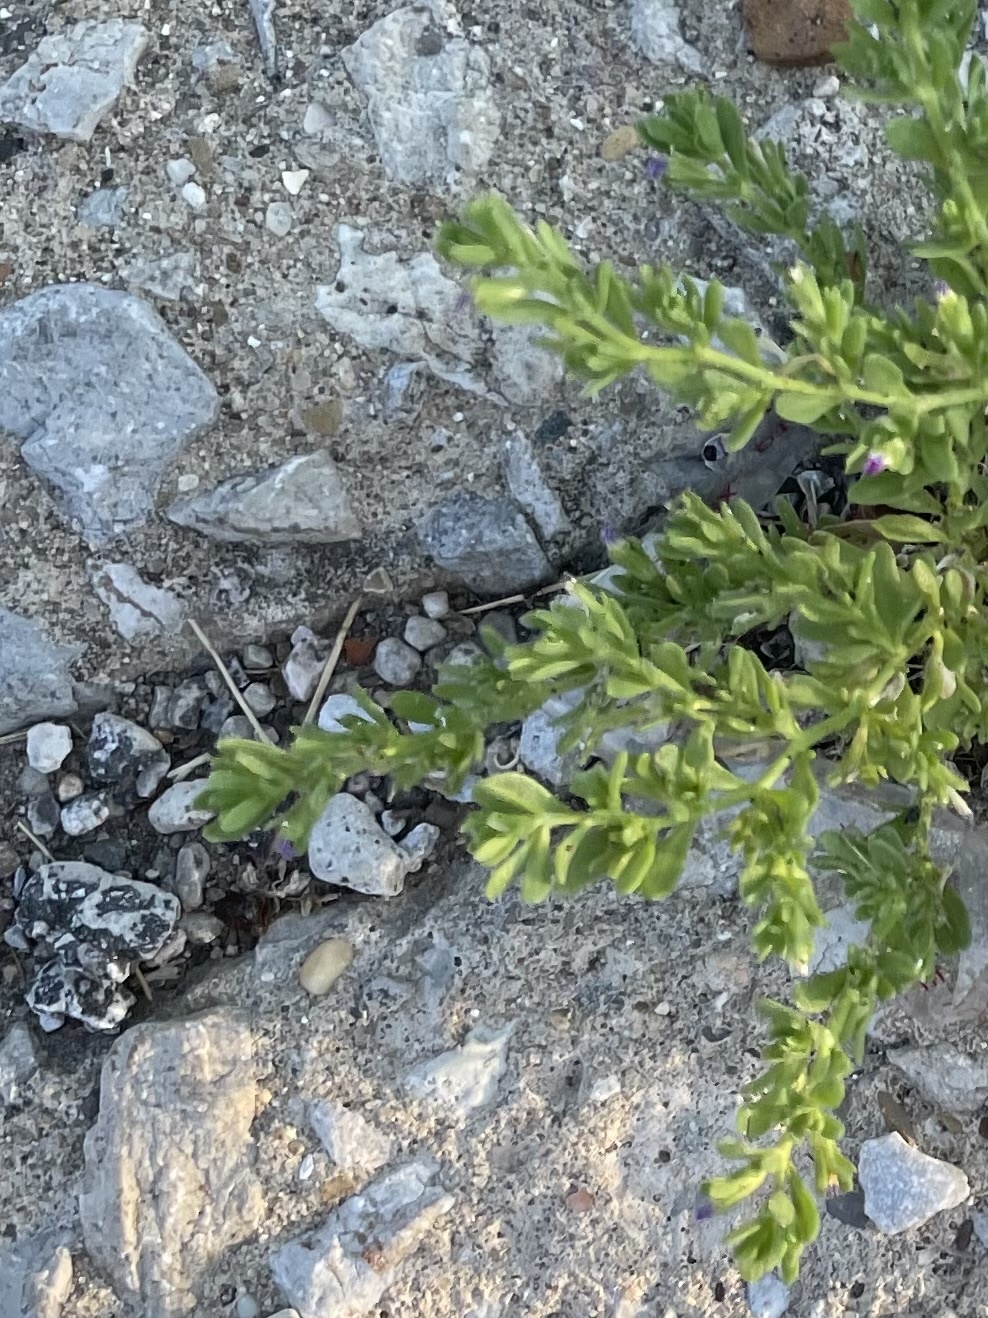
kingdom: Plantae
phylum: Tracheophyta
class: Magnoliopsida
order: Solanales
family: Solanaceae
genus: Calibrachoa
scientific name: Calibrachoa parviflora
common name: Seaside petunia
